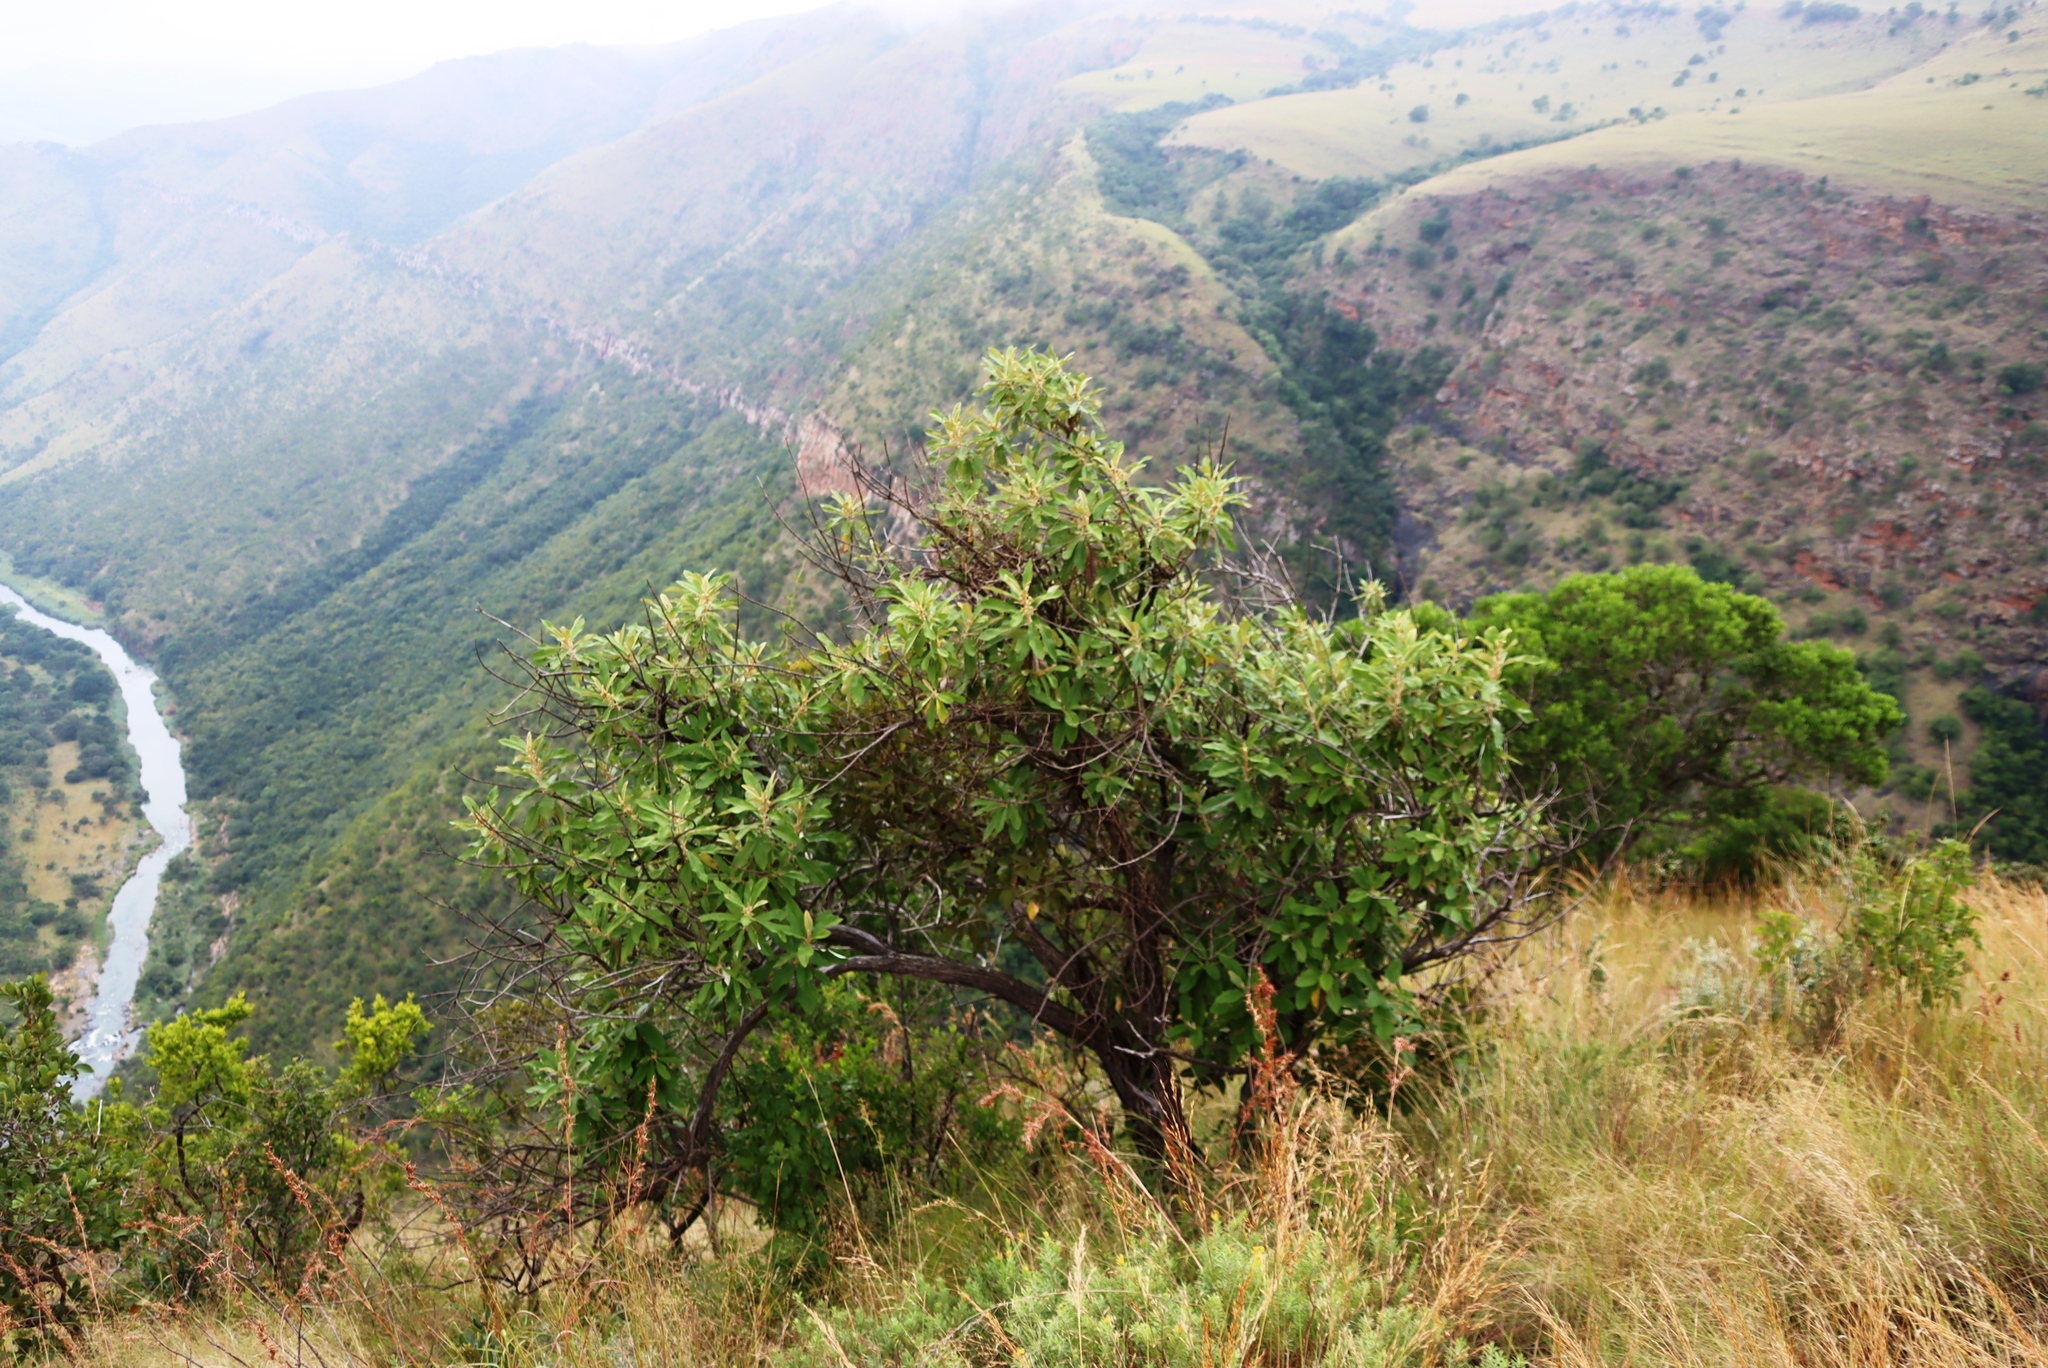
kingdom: Plantae
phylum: Tracheophyta
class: Magnoliopsida
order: Asterales
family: Asteraceae
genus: Tarchonanthus
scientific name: Tarchonanthus trilobus
